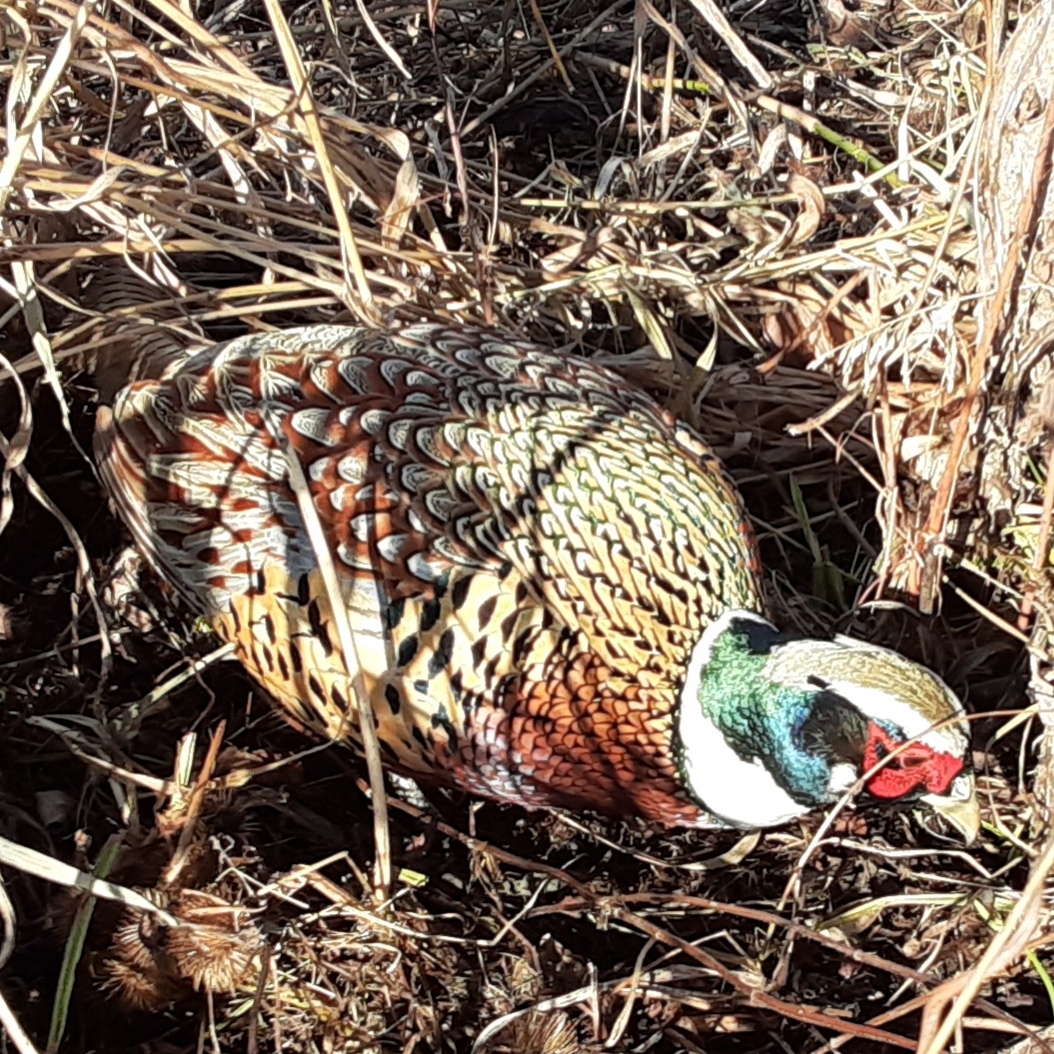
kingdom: Animalia
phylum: Chordata
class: Aves
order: Galliformes
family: Phasianidae
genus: Phasianus
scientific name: Phasianus colchicus
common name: Common pheasant
